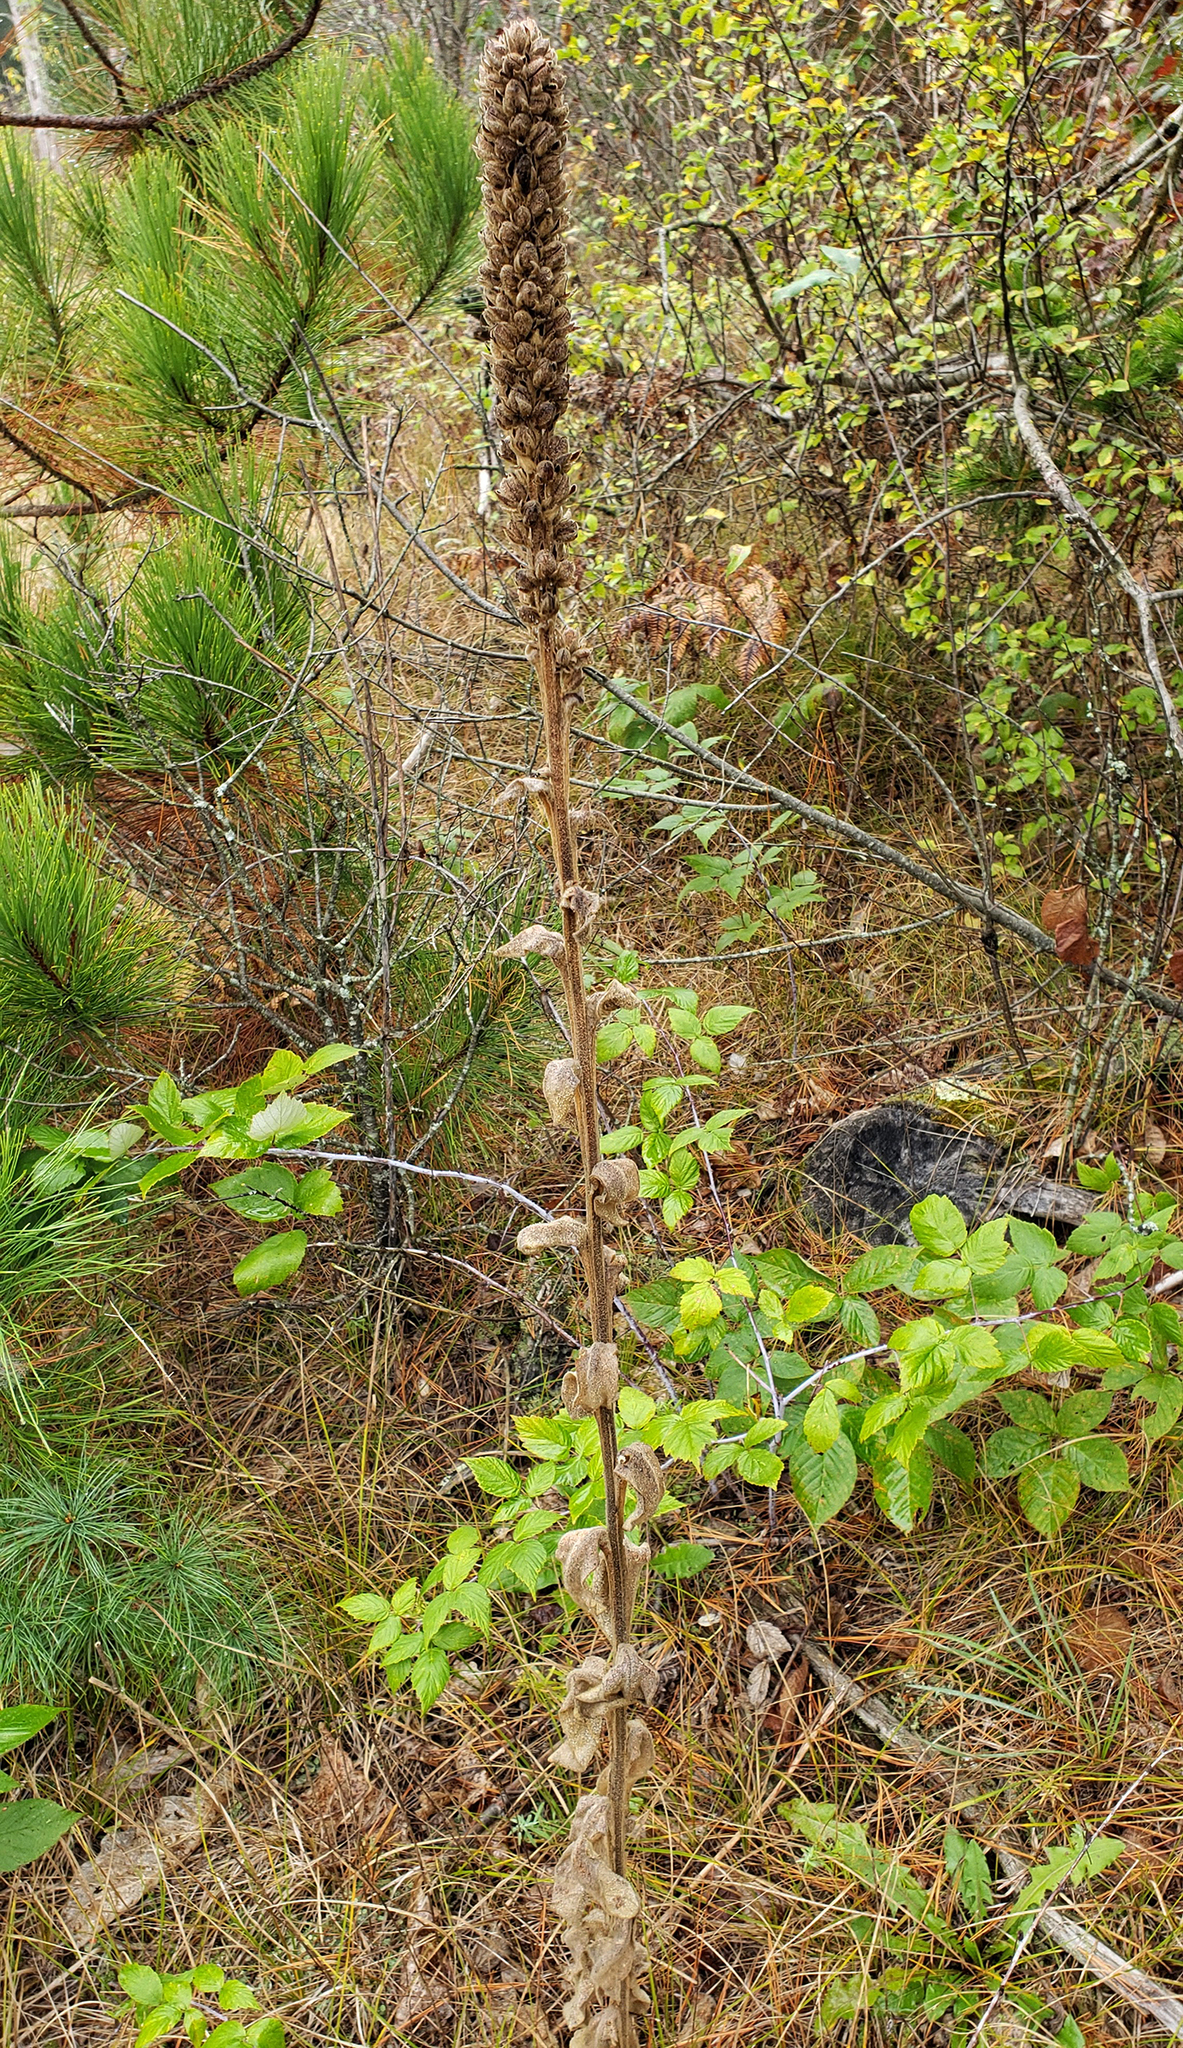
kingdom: Plantae
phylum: Tracheophyta
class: Magnoliopsida
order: Lamiales
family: Scrophulariaceae
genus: Verbascum
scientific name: Verbascum thapsus
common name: Common mullein
